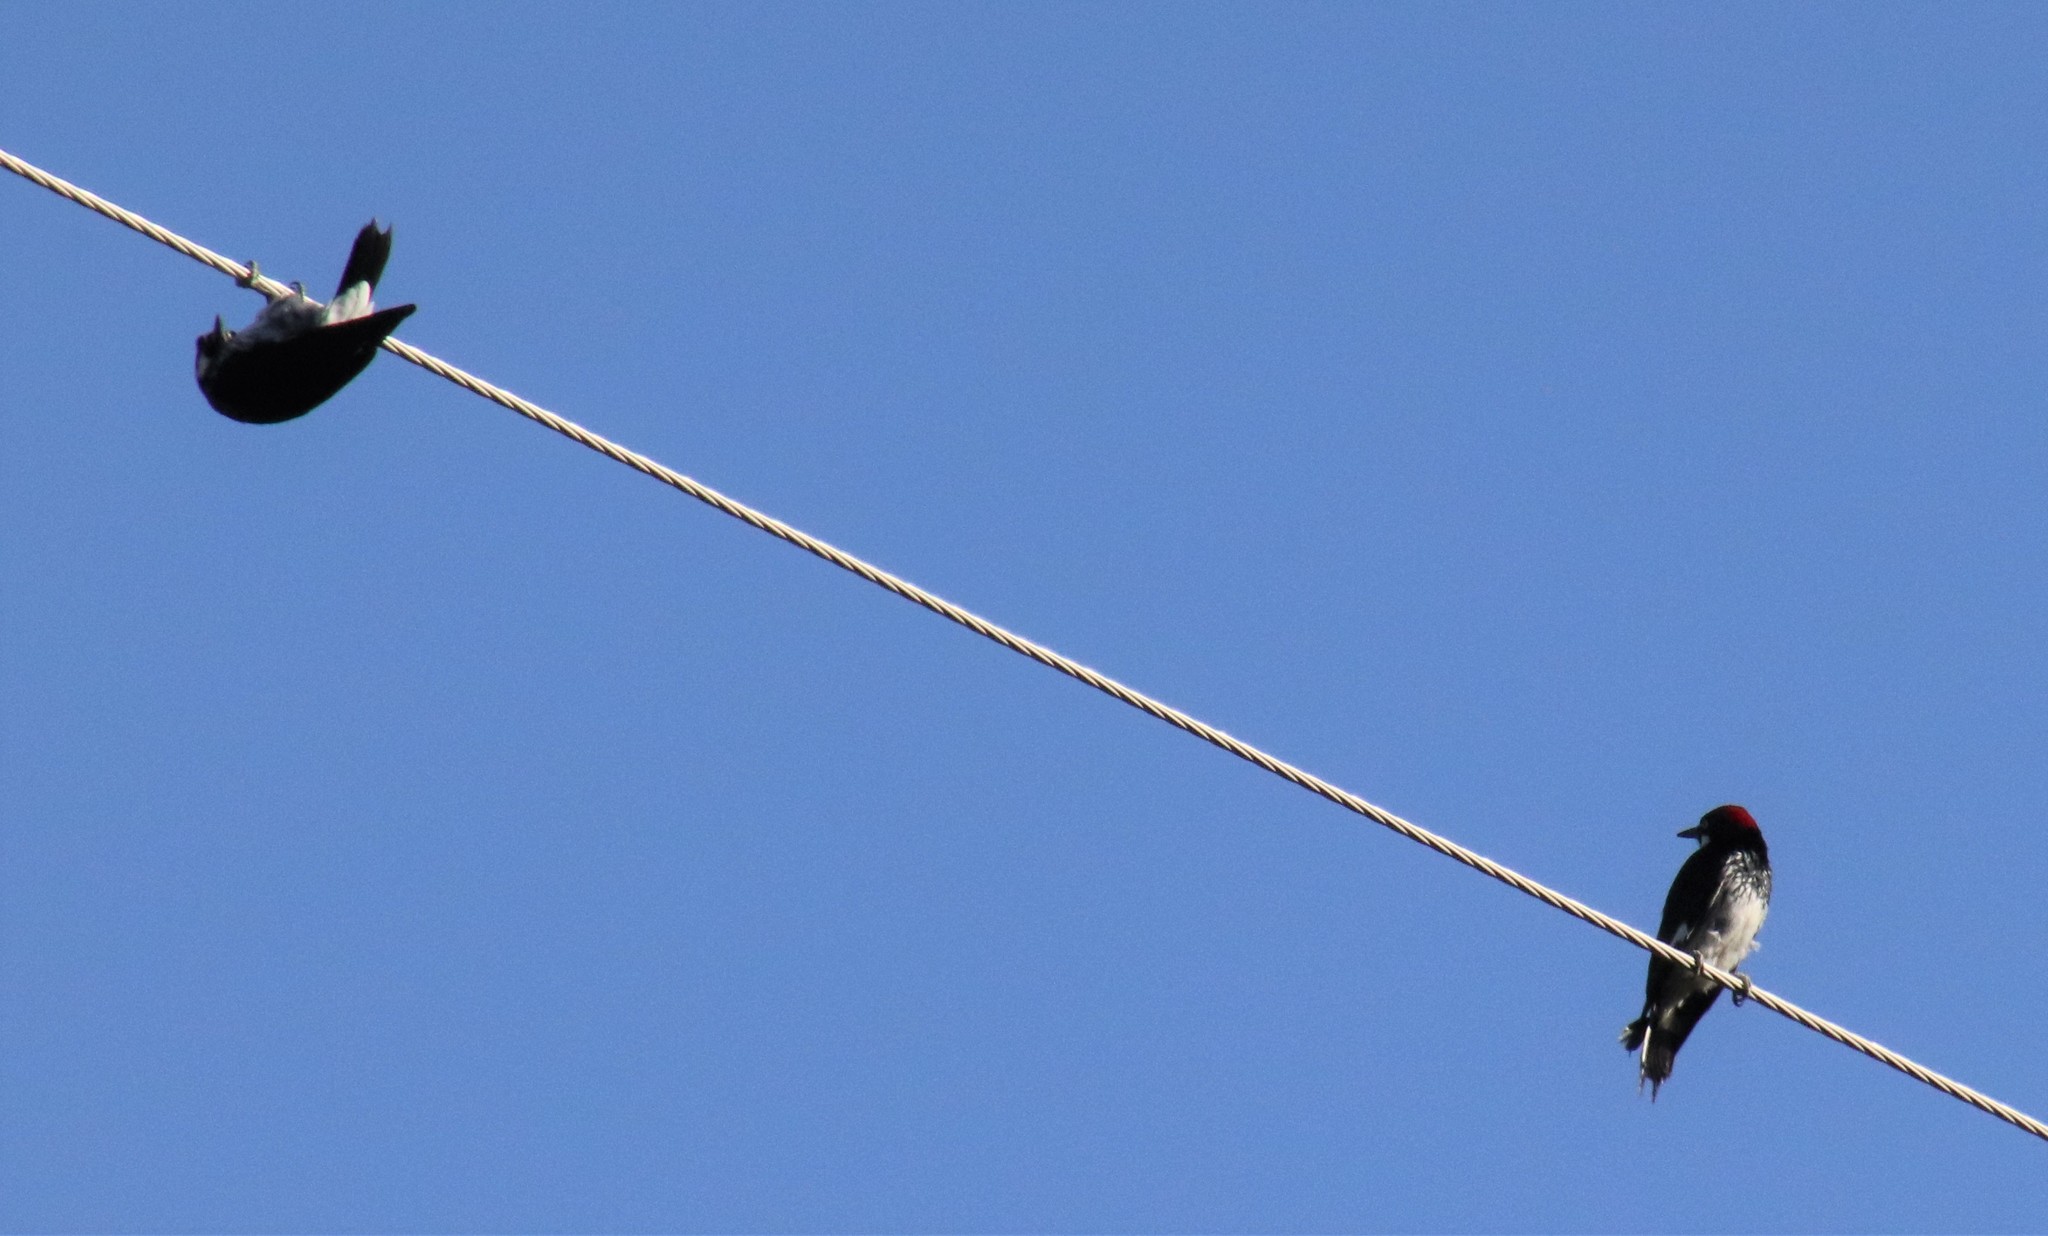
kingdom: Animalia
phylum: Chordata
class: Aves
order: Piciformes
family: Picidae
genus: Melanerpes
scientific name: Melanerpes formicivorus
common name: Acorn woodpecker
